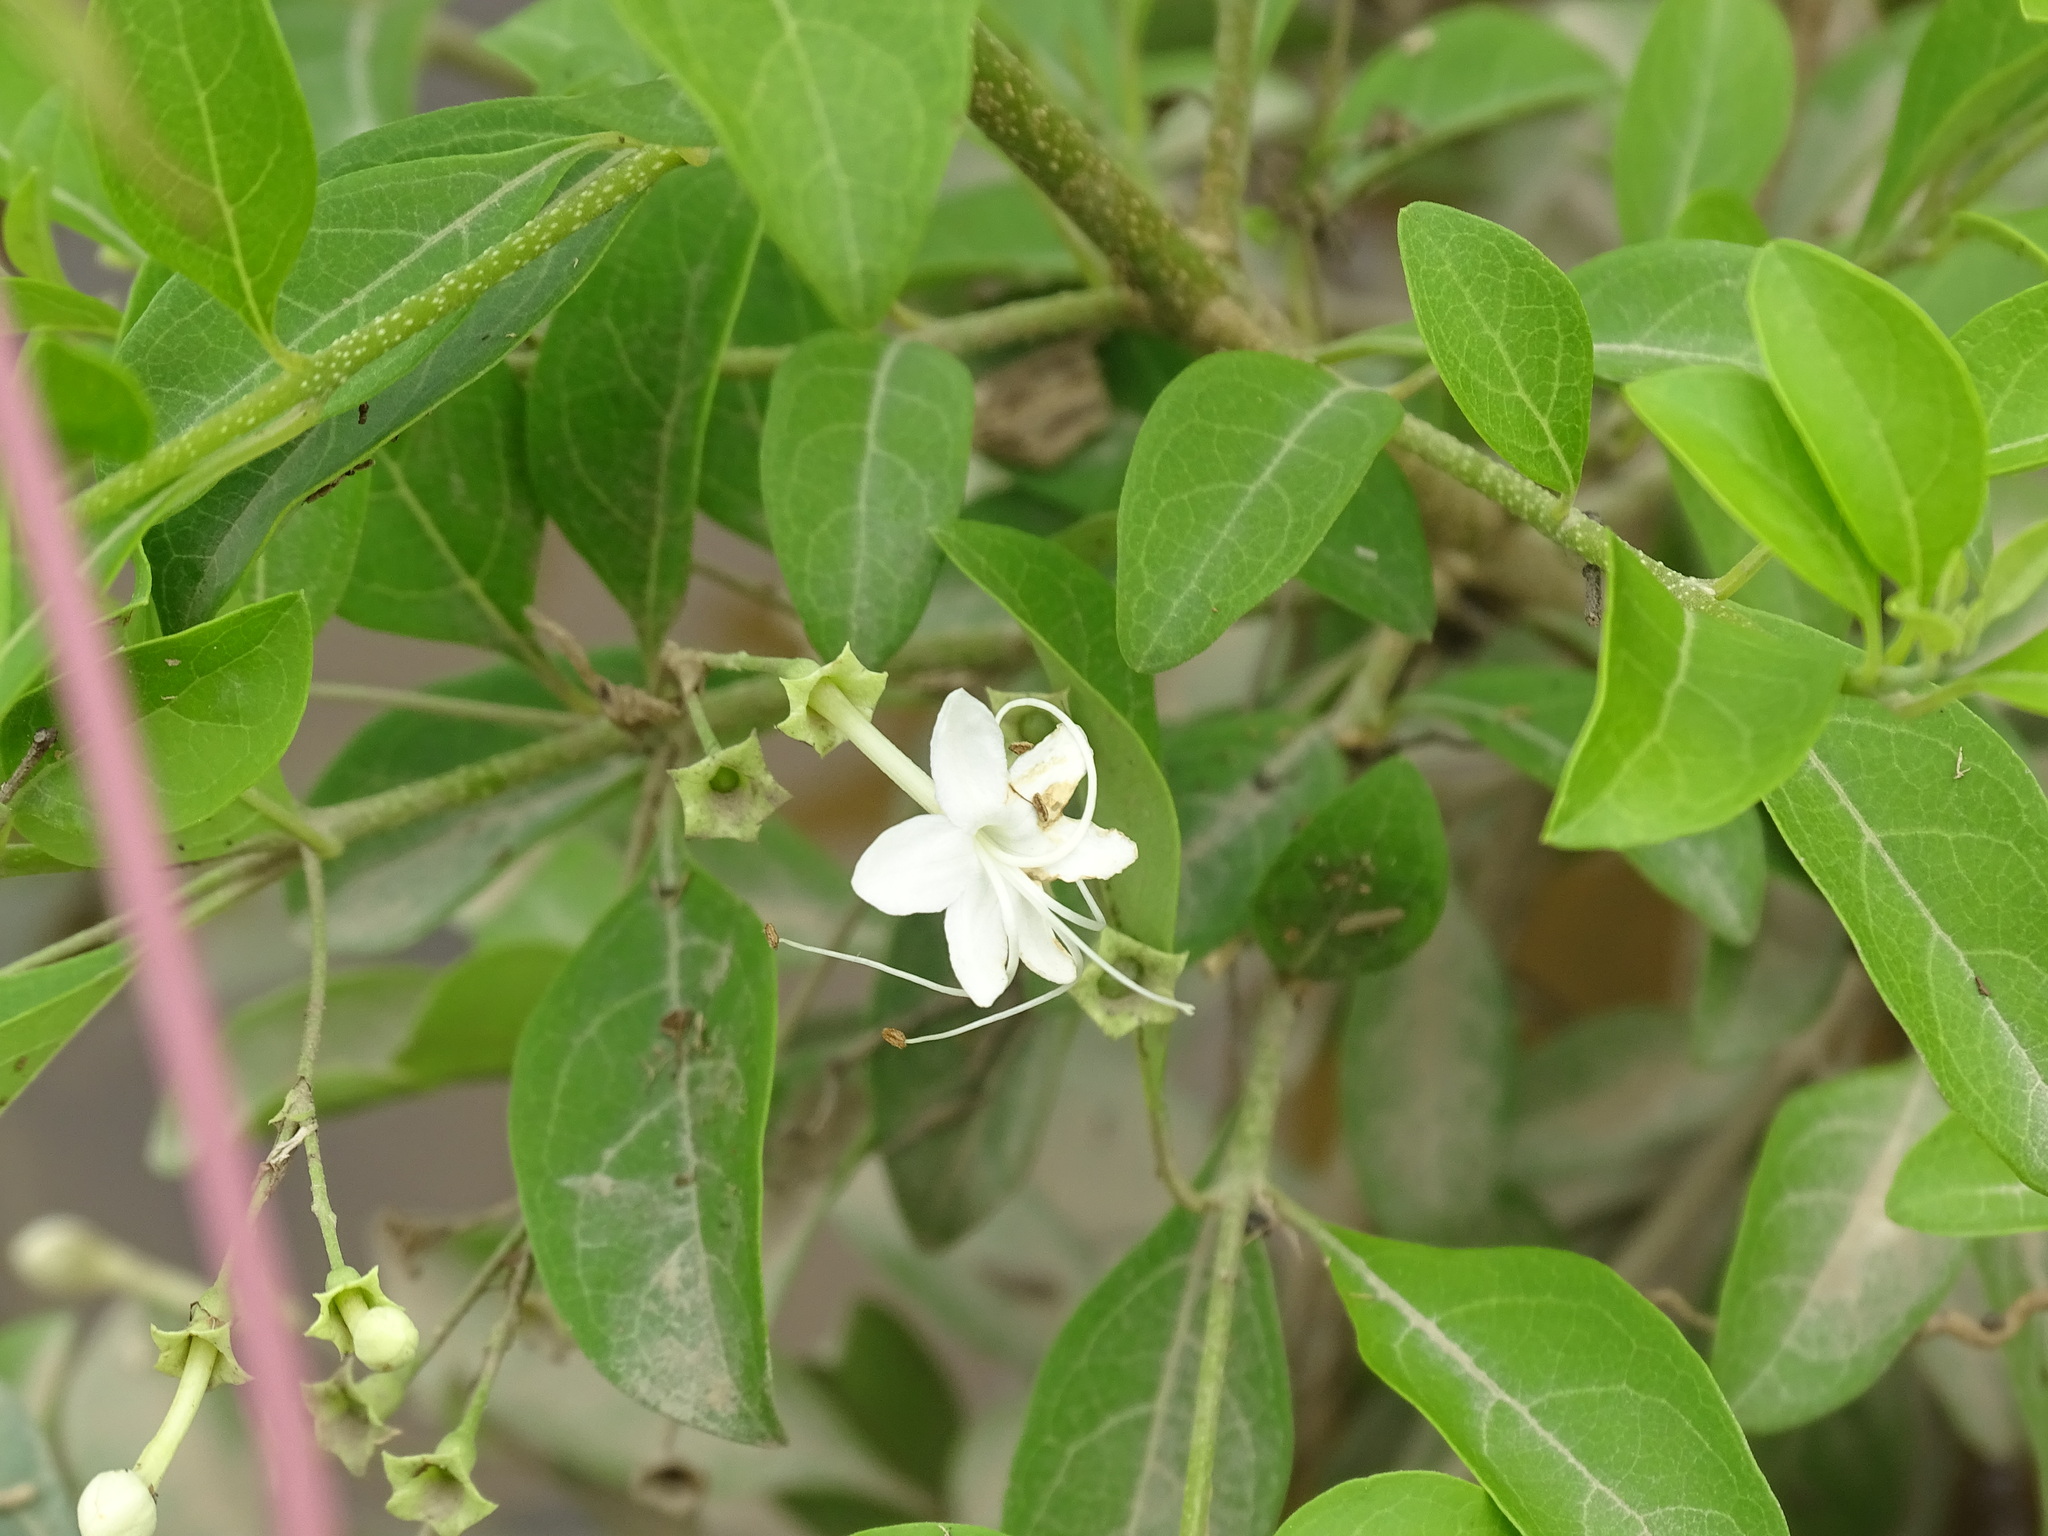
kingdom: Plantae
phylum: Tracheophyta
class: Magnoliopsida
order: Lamiales
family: Lamiaceae
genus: Volkameria
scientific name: Volkameria ligustrina
